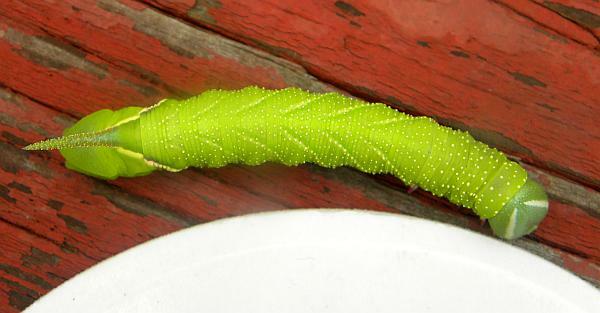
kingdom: Animalia
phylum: Arthropoda
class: Insecta
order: Lepidoptera
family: Sphingidae
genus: Ceratomia
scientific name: Ceratomia undulosa
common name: Waved sphinx
